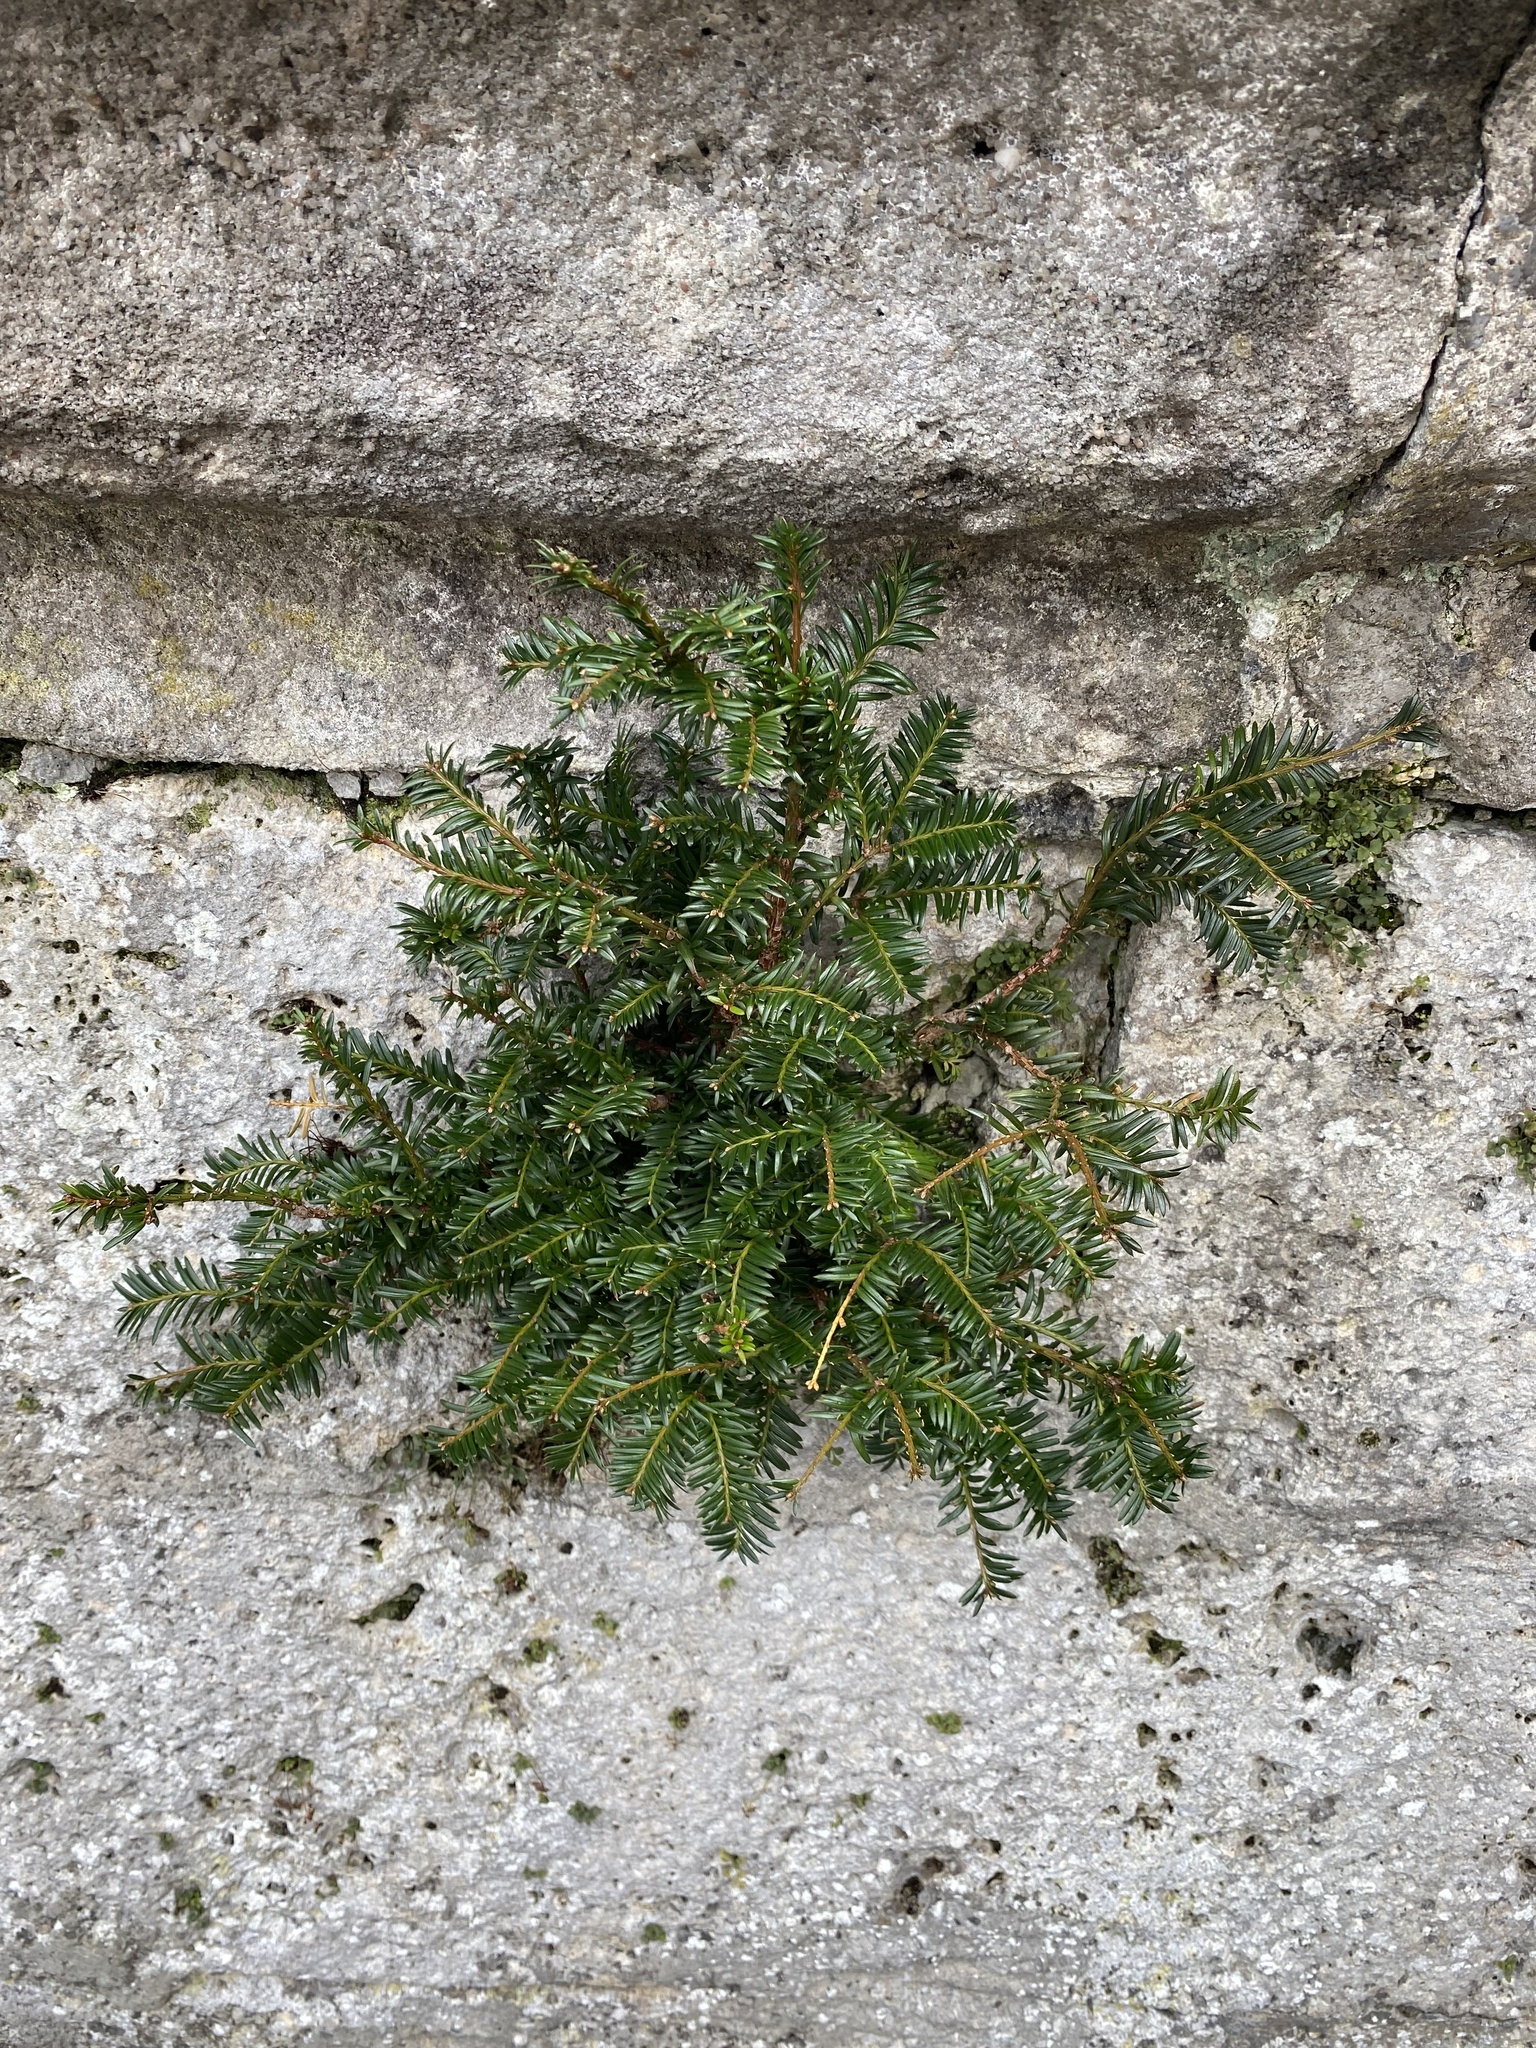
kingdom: Plantae
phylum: Tracheophyta
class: Pinopsida
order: Pinales
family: Taxaceae
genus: Taxus
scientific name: Taxus baccata
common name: Yew
